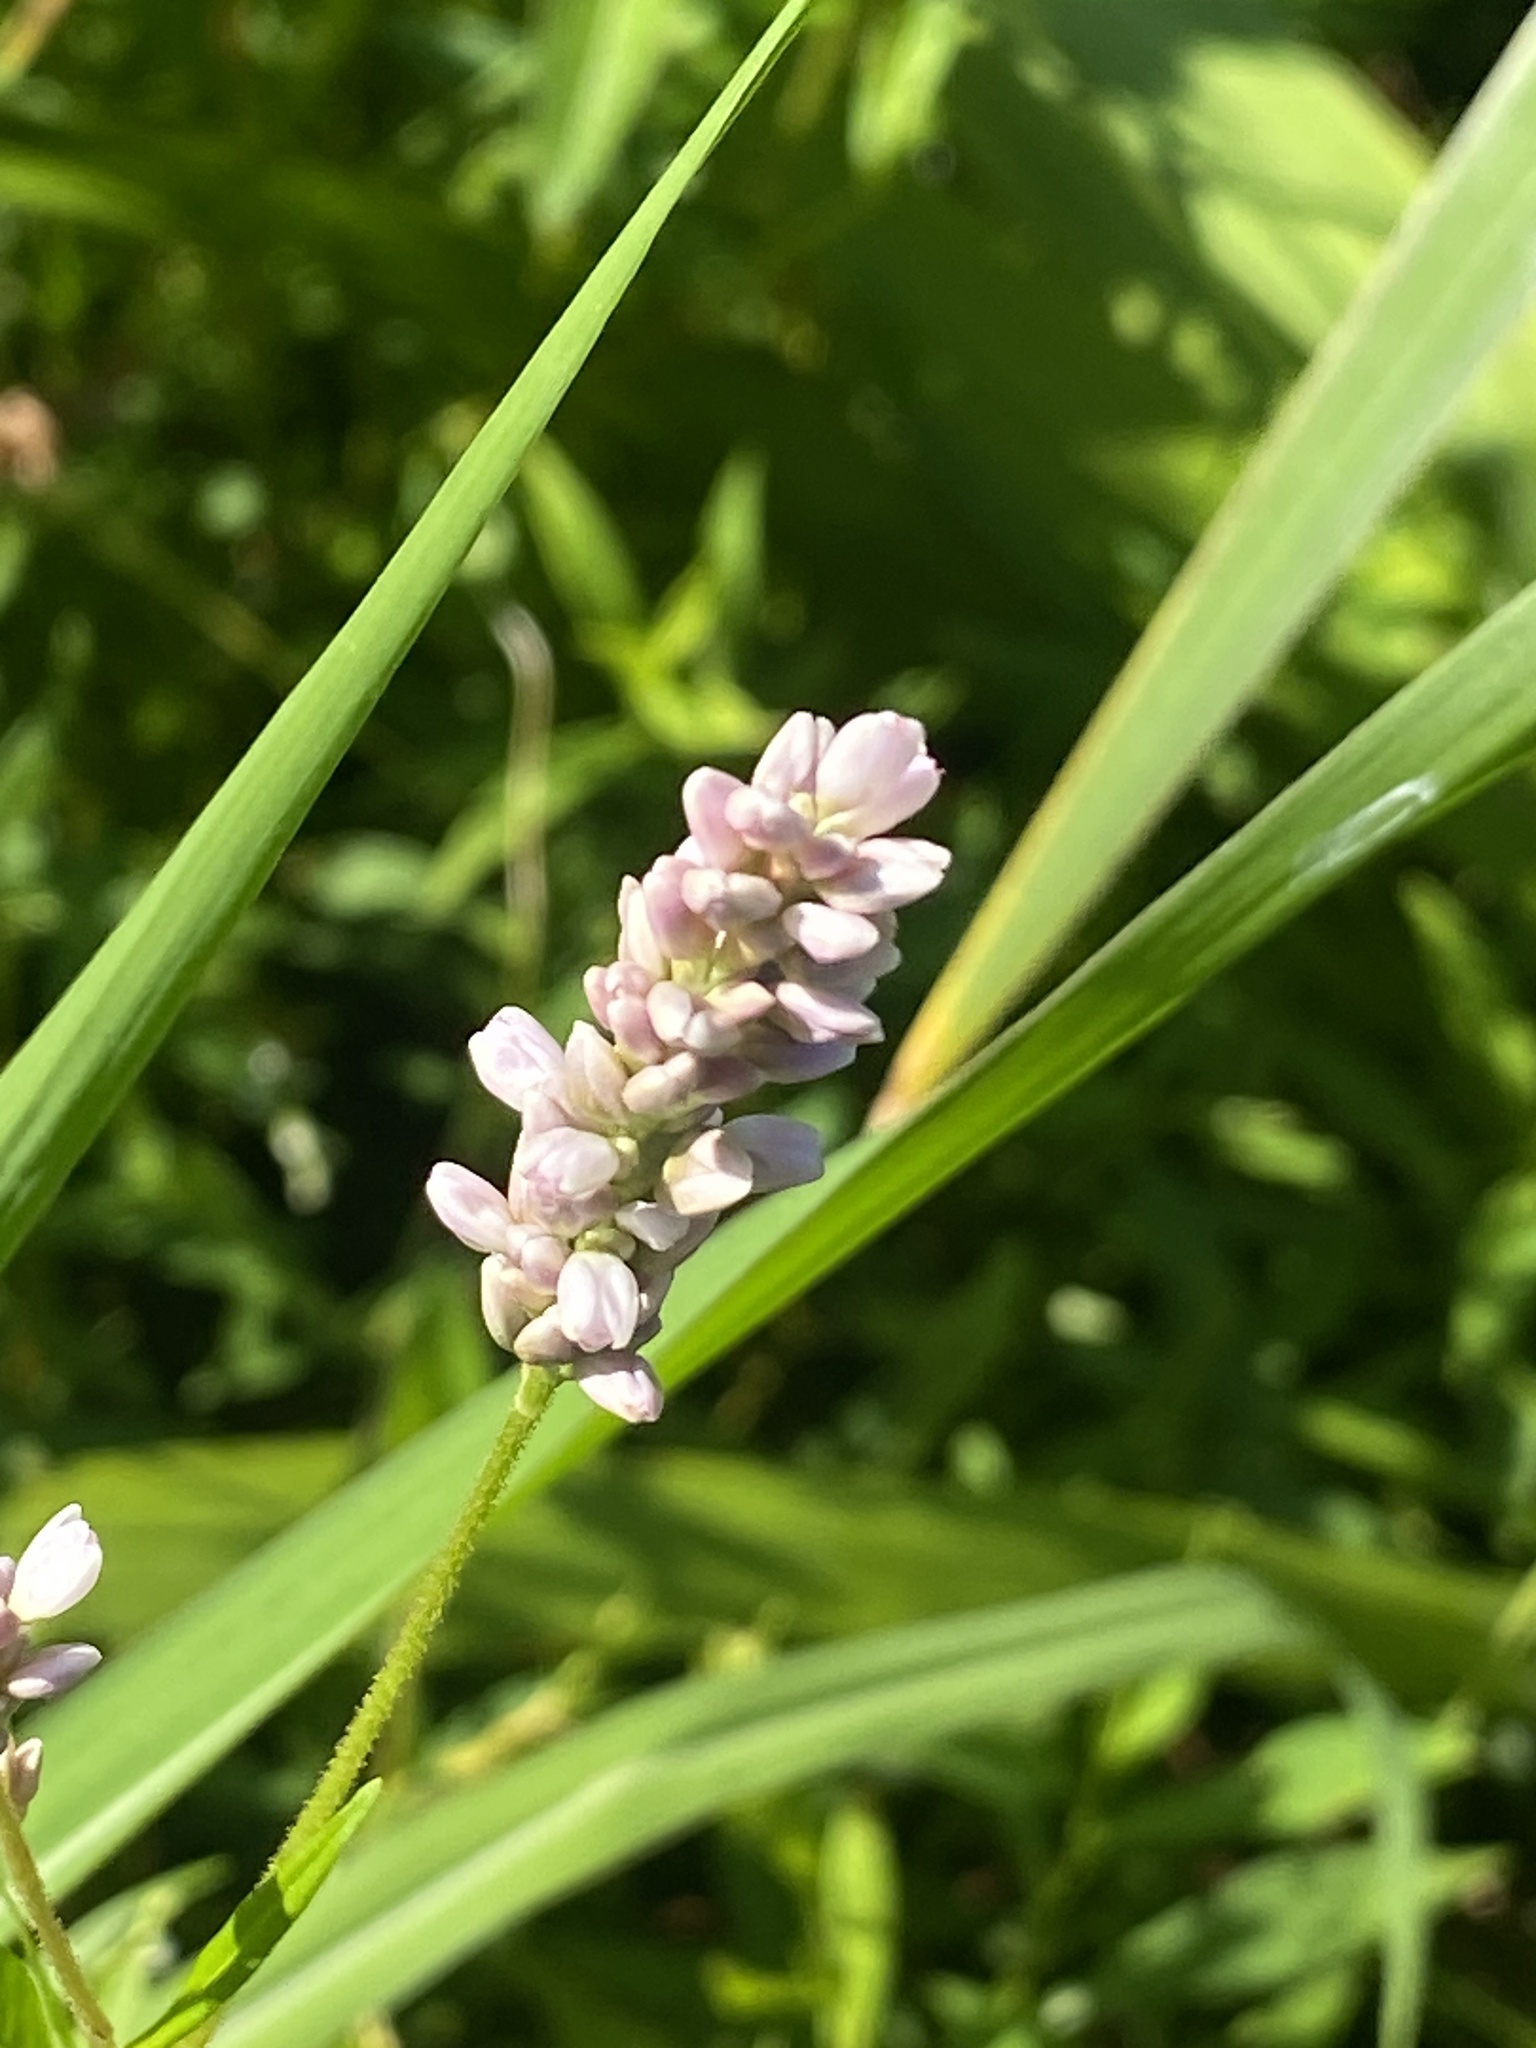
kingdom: Plantae
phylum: Tracheophyta
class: Magnoliopsida
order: Caryophyllales
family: Polygonaceae
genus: Persicaria
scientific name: Persicaria pensylvanica
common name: Pinkweed
